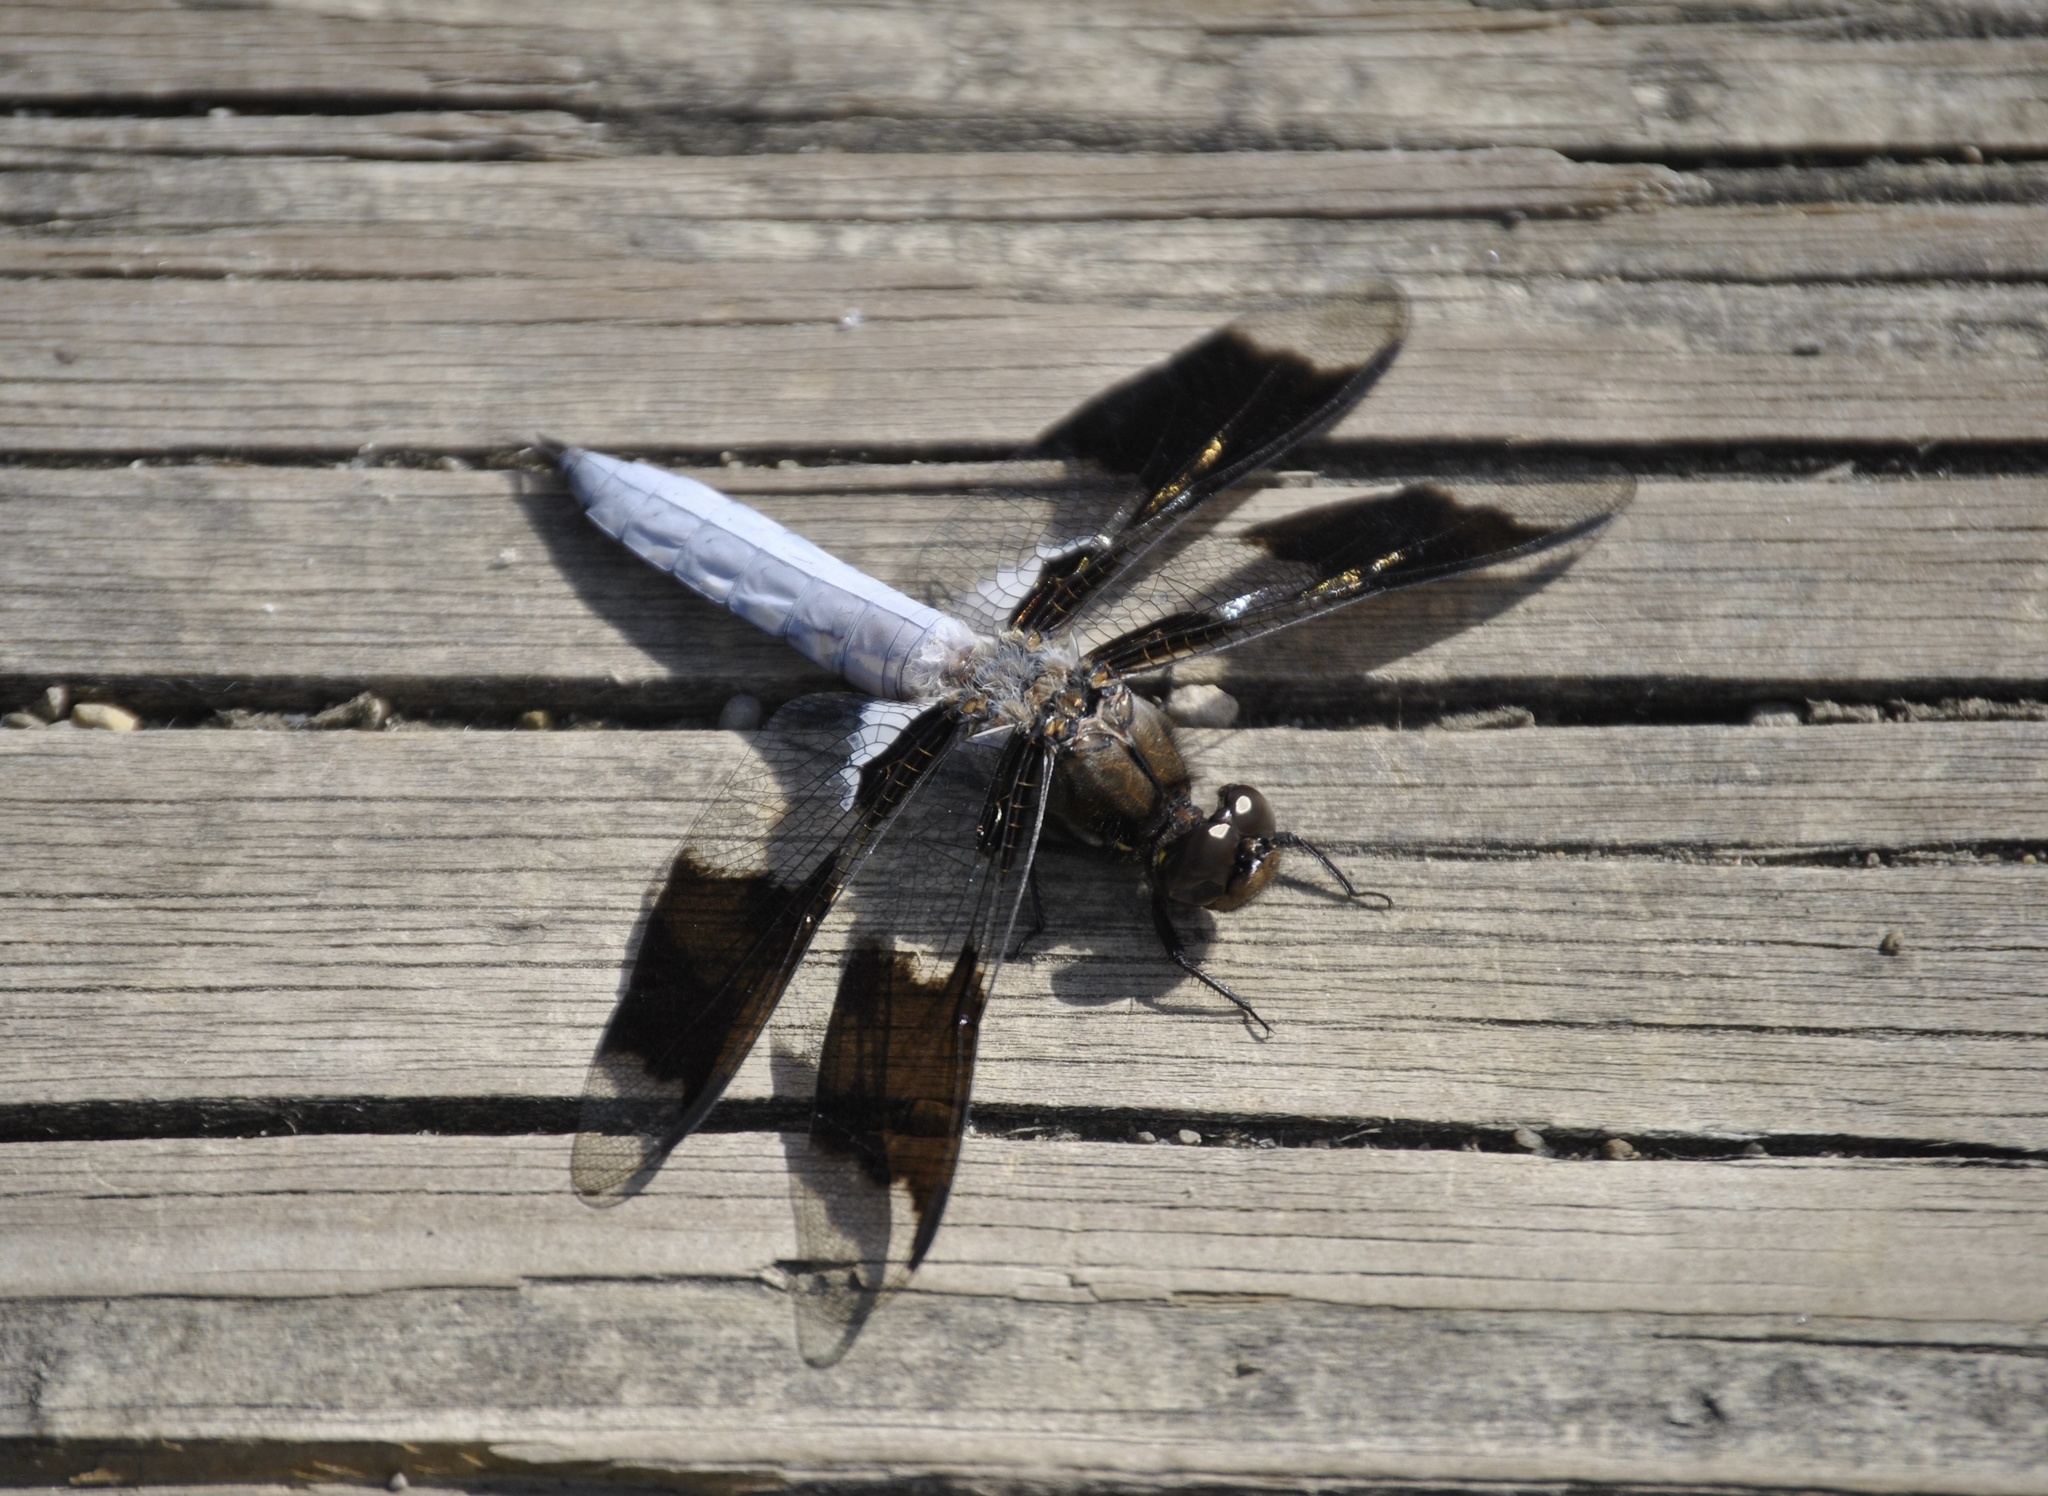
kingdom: Animalia
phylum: Arthropoda
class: Insecta
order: Odonata
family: Libellulidae
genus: Plathemis
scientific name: Plathemis lydia
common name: Common whitetail
